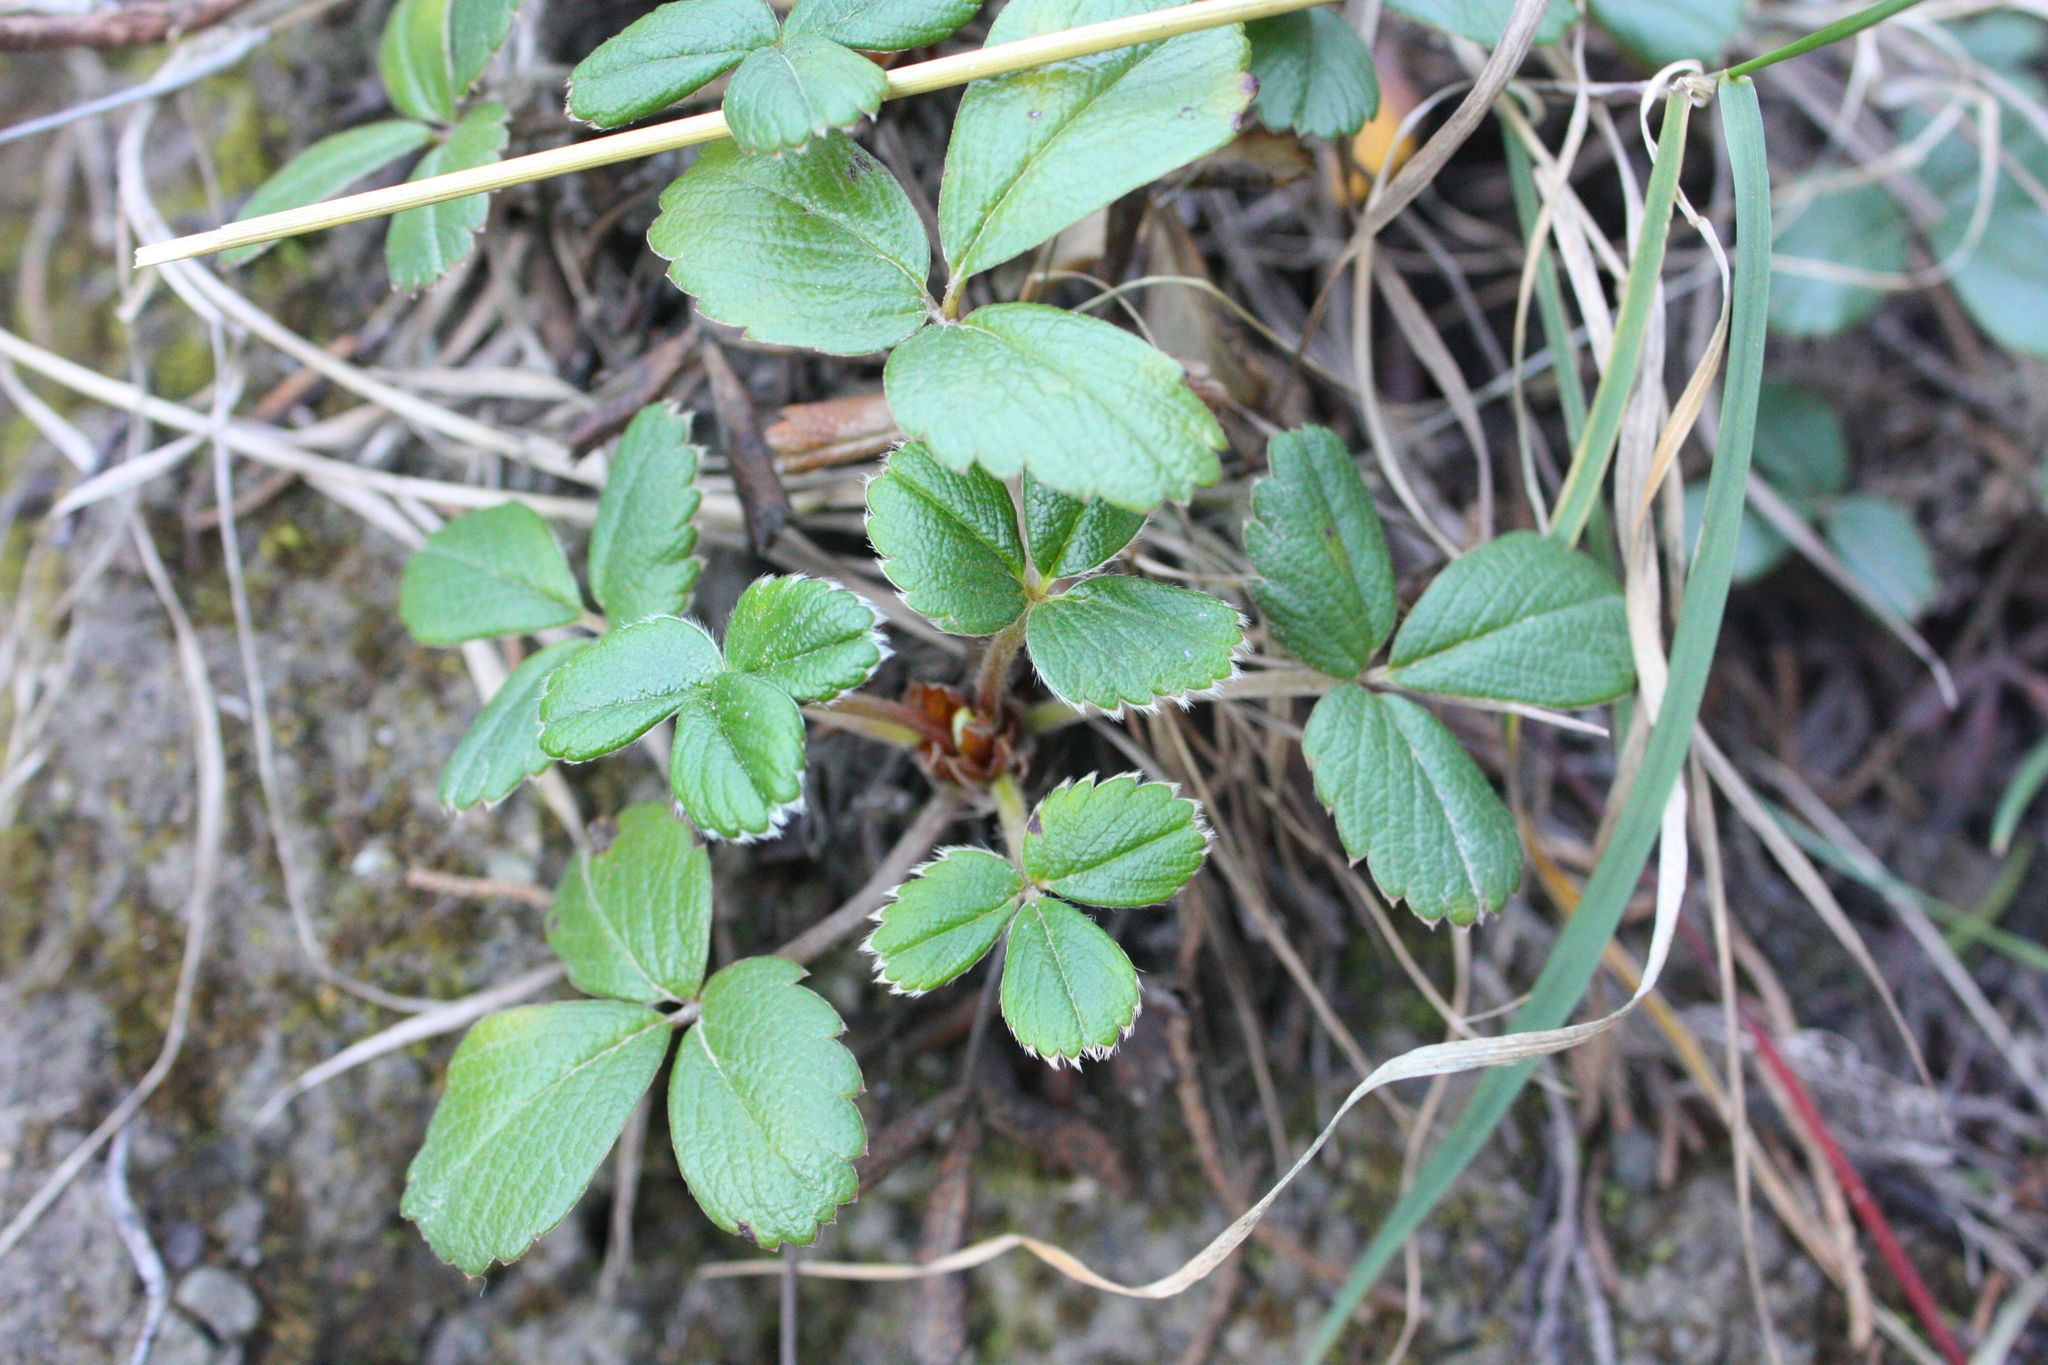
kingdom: Plantae
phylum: Tracheophyta
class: Magnoliopsida
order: Rosales
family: Rosaceae
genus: Fragaria
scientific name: Fragaria chiloensis
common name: Beach strawberry
